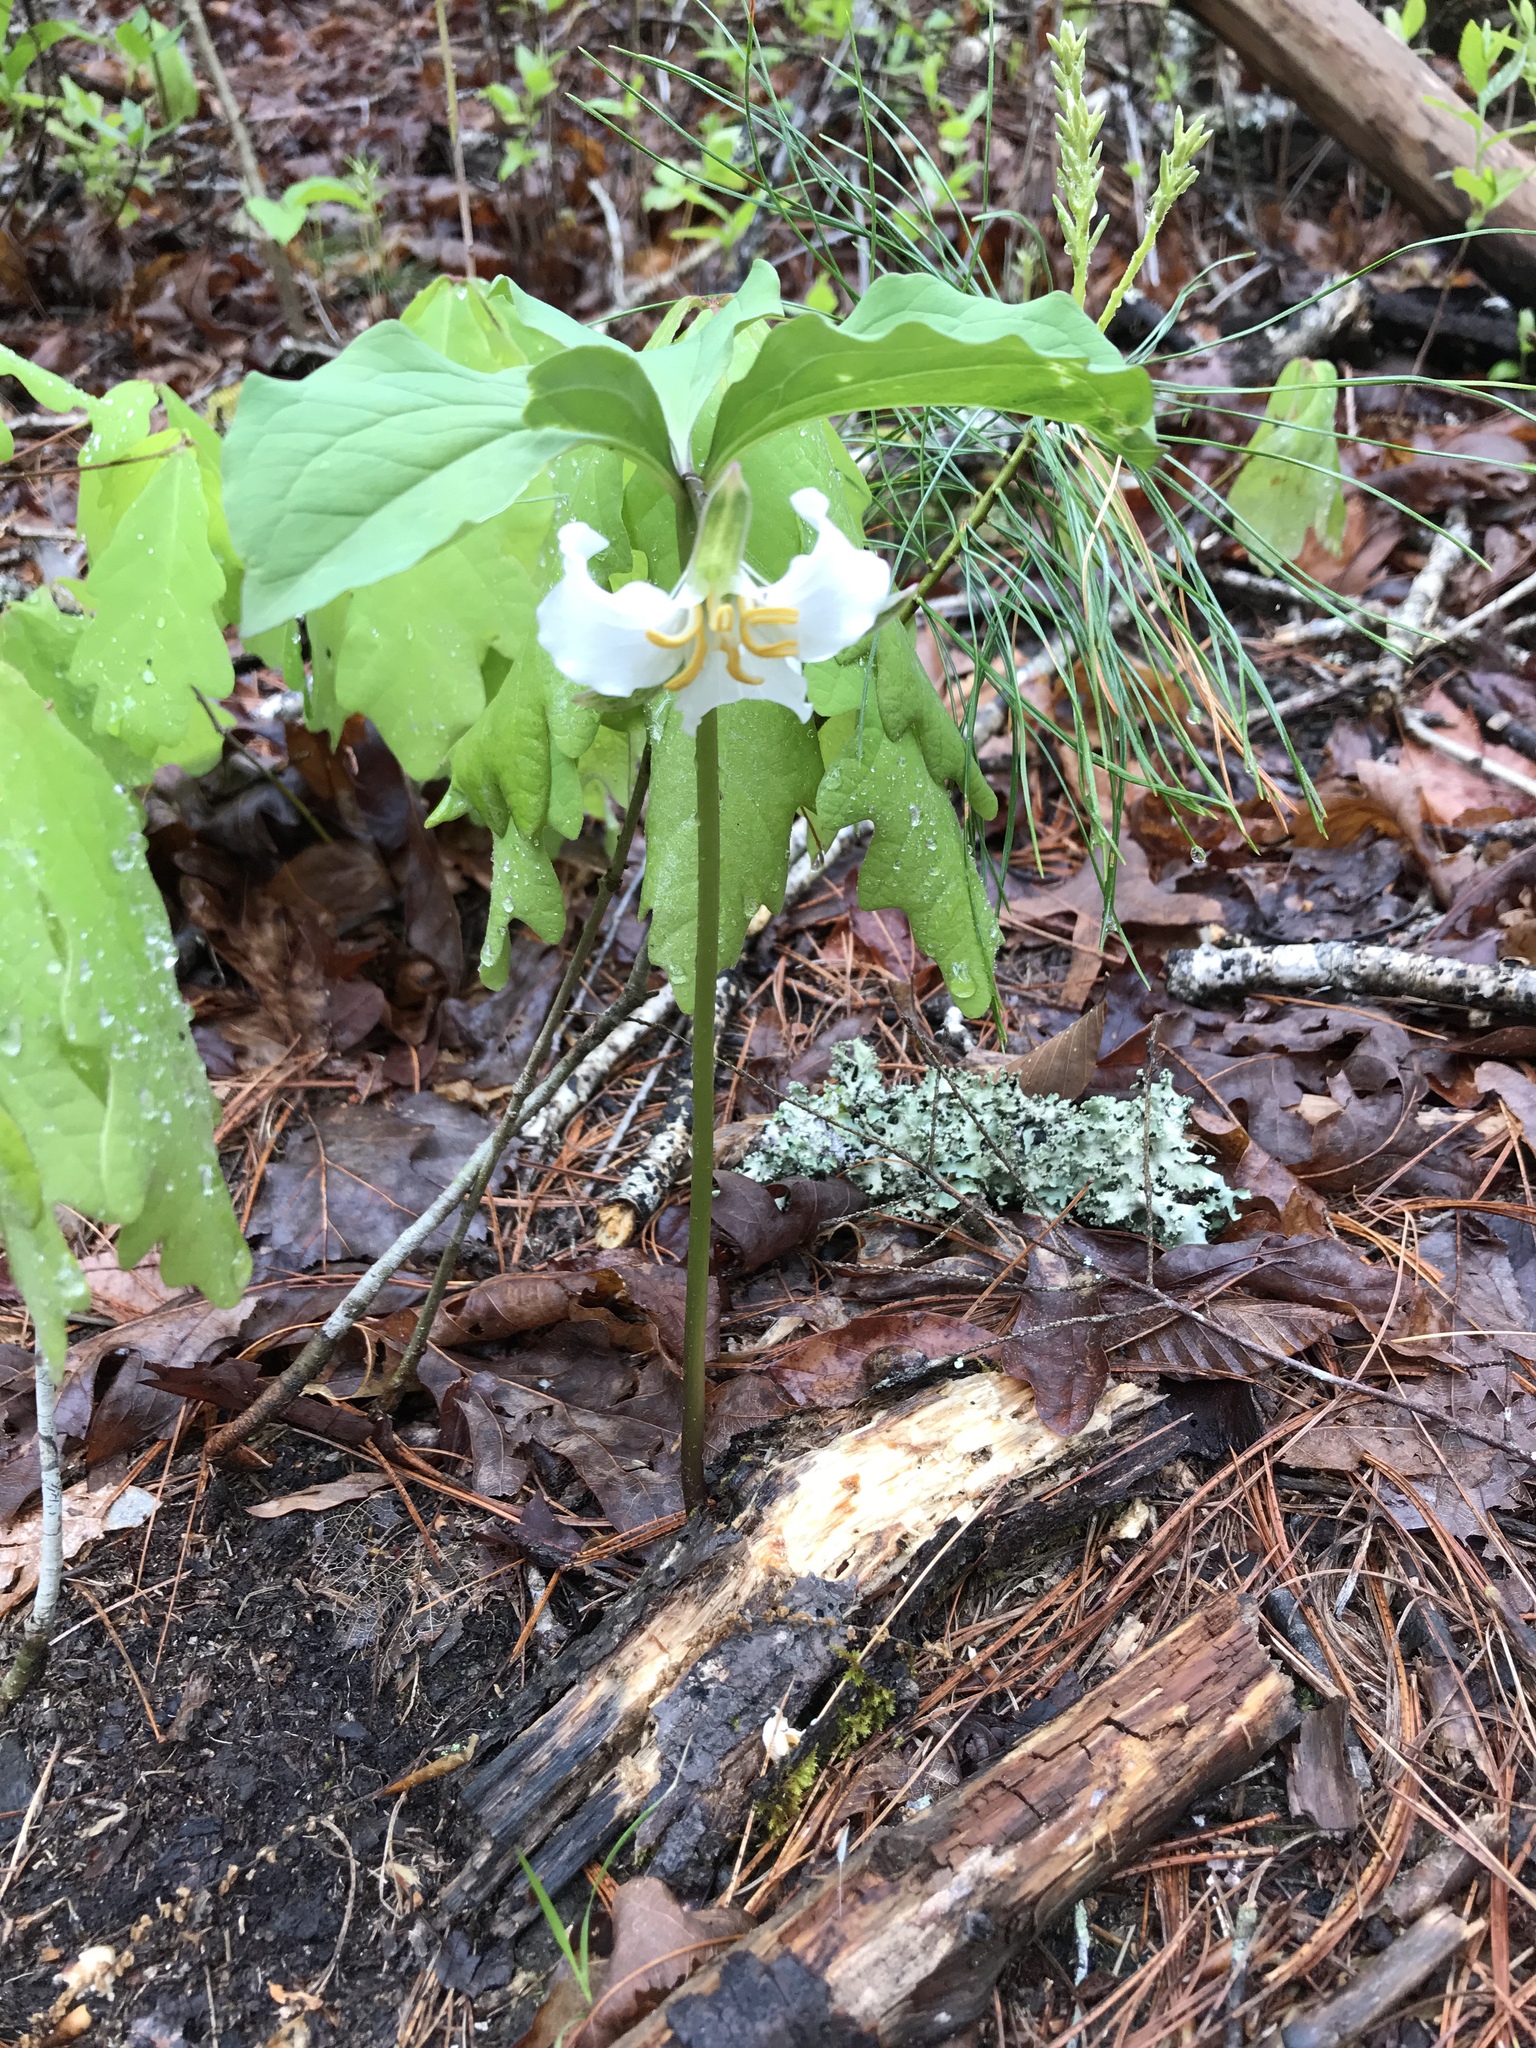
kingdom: Plantae
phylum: Tracheophyta
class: Liliopsida
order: Liliales
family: Melanthiaceae
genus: Trillium
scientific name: Trillium catesbaei
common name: Bashful trillium
